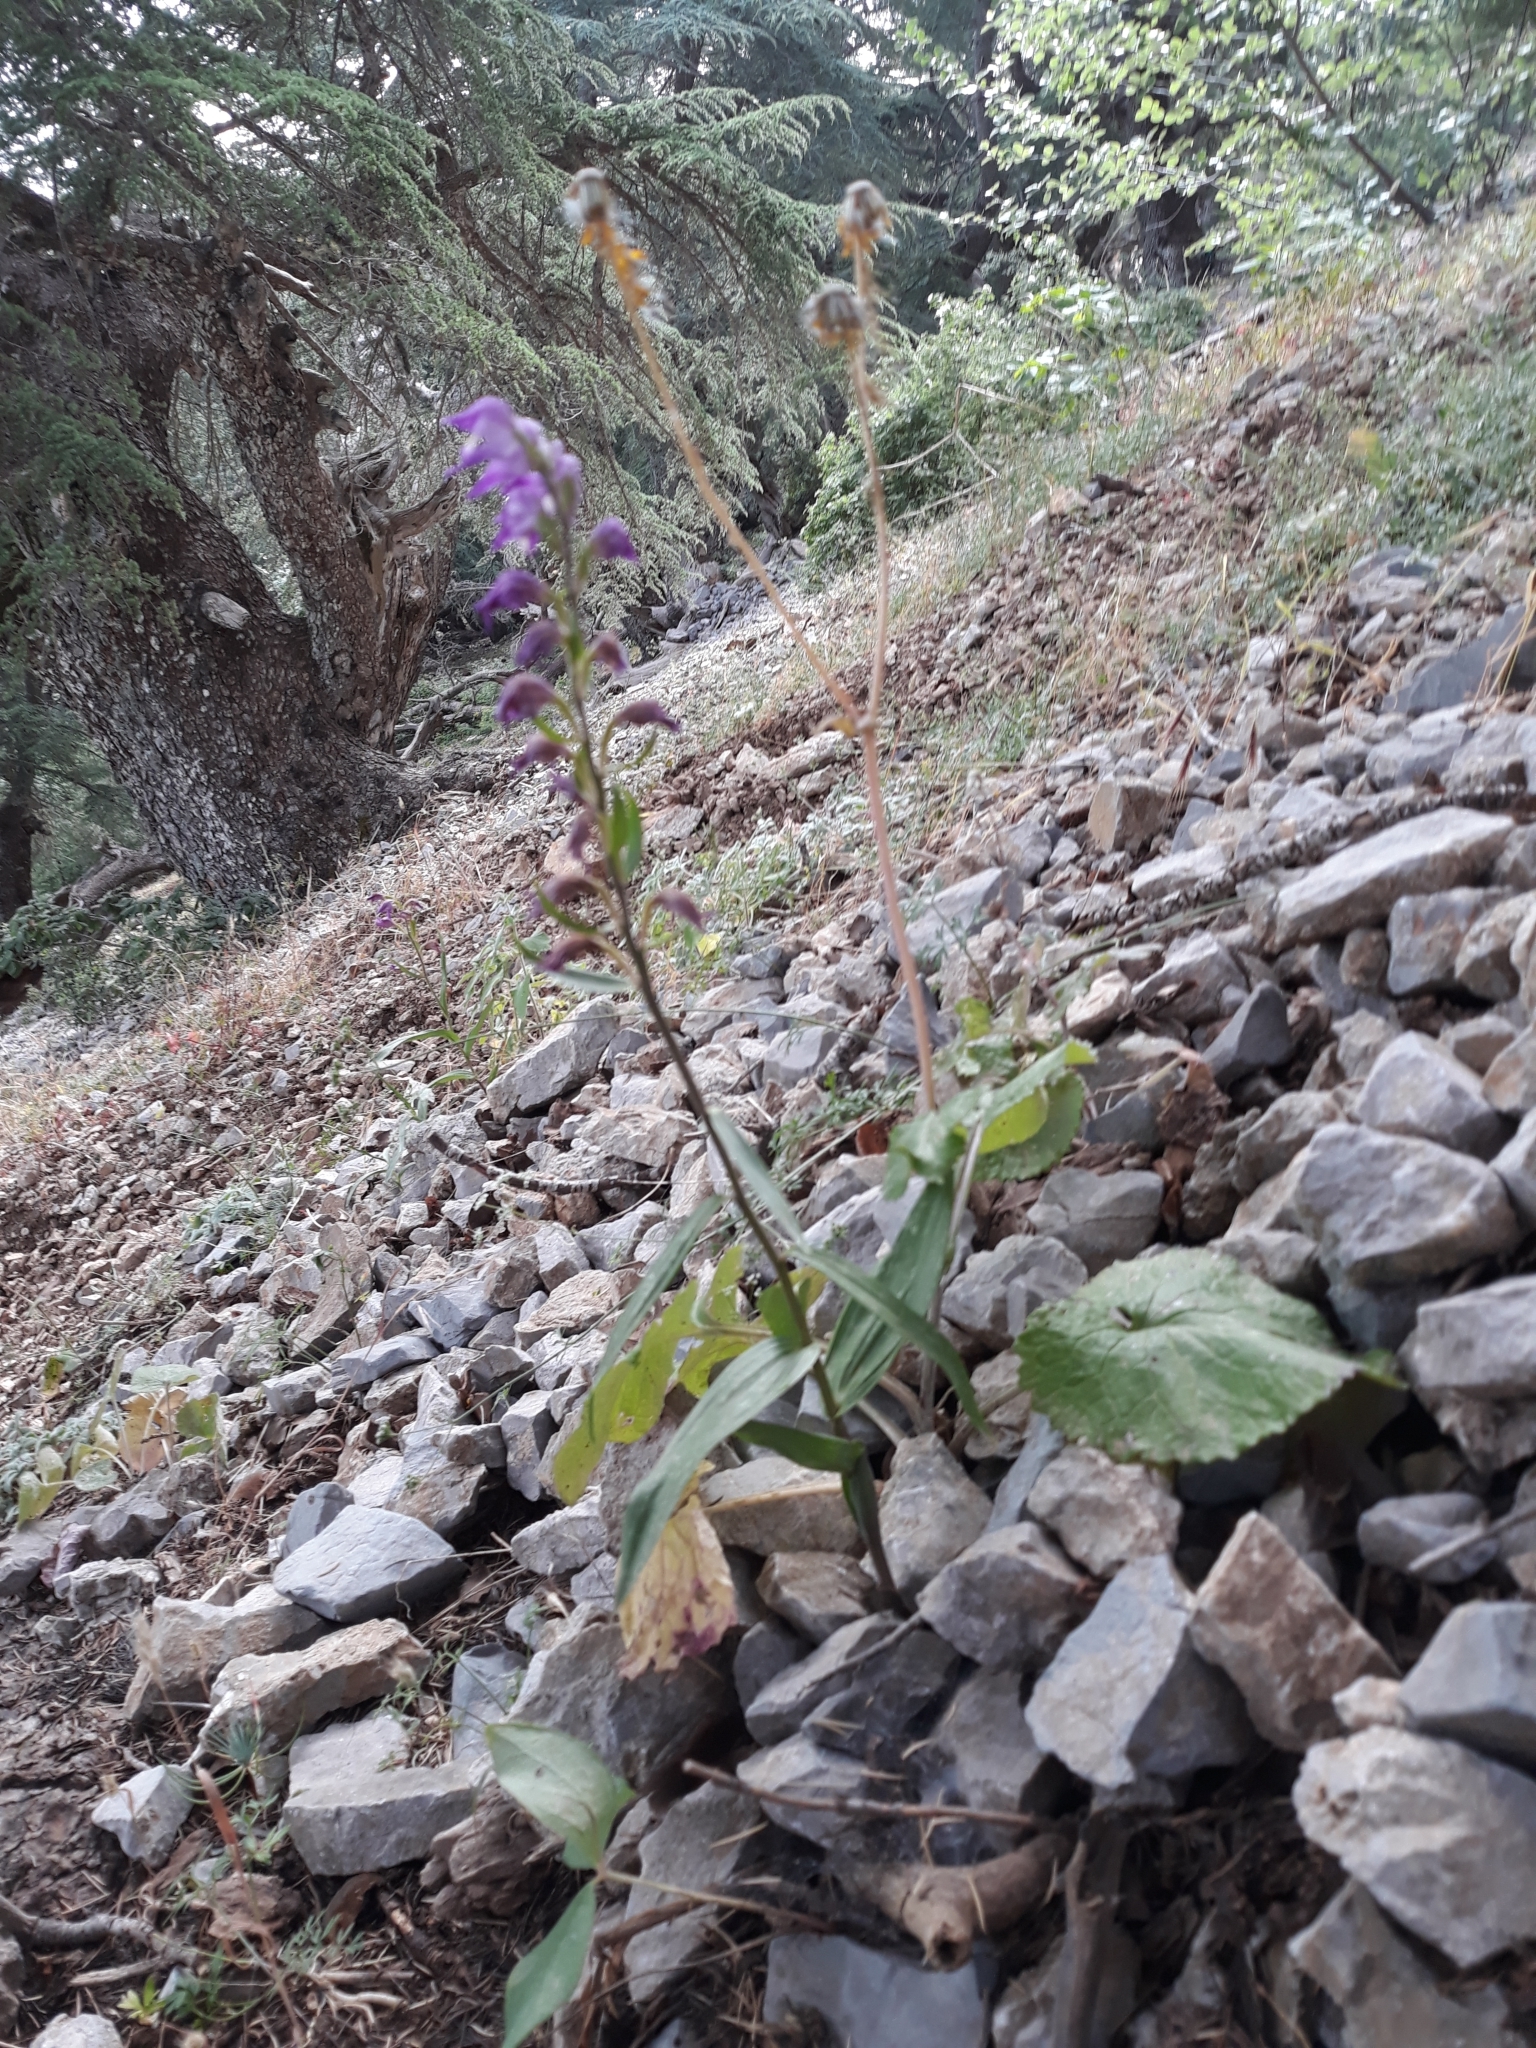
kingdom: Plantae
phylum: Tracheophyta
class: Liliopsida
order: Asparagales
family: Orchidaceae
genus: Cephalanthera
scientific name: Cephalanthera rubra
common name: Red helleborine
